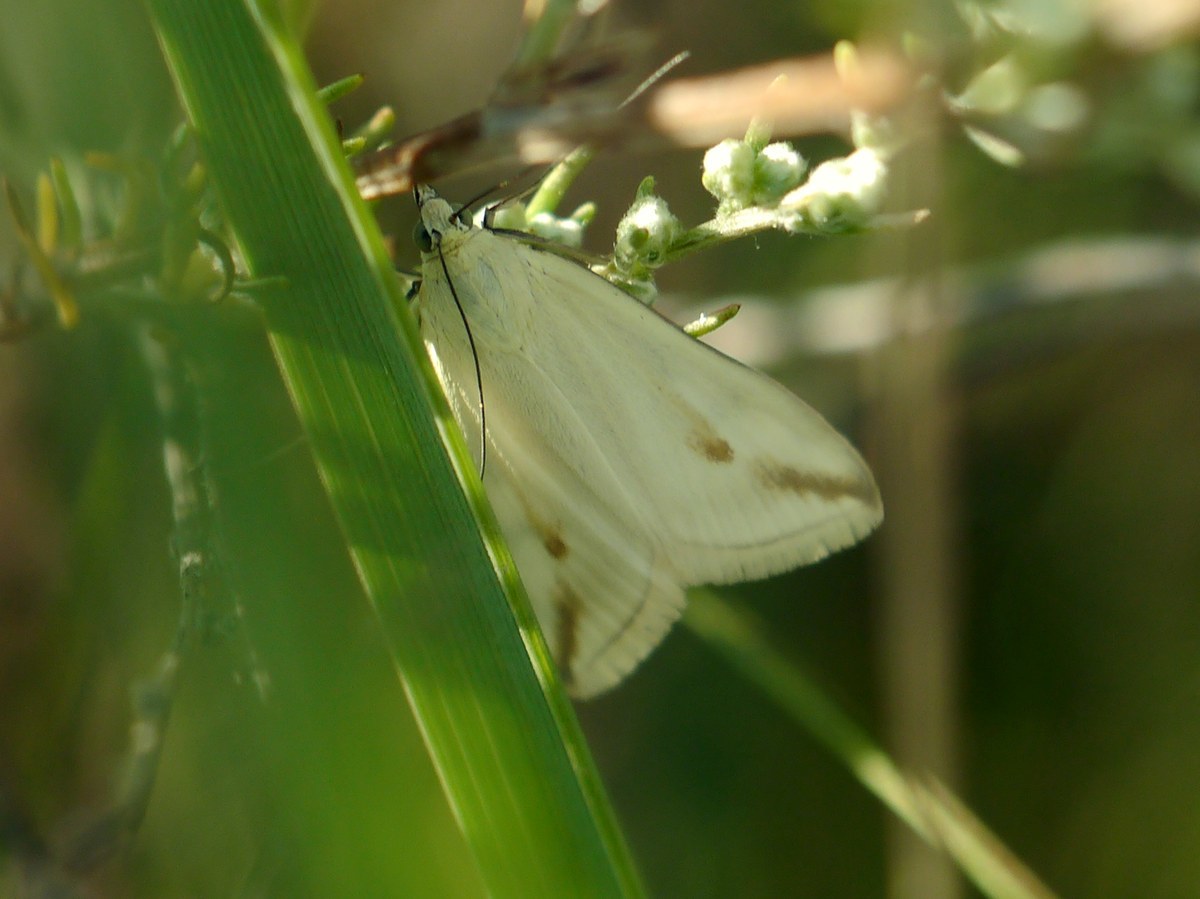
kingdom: Animalia
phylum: Arthropoda
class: Insecta
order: Lepidoptera
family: Crambidae
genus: Loxostege
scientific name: Loxostege deliblatica
